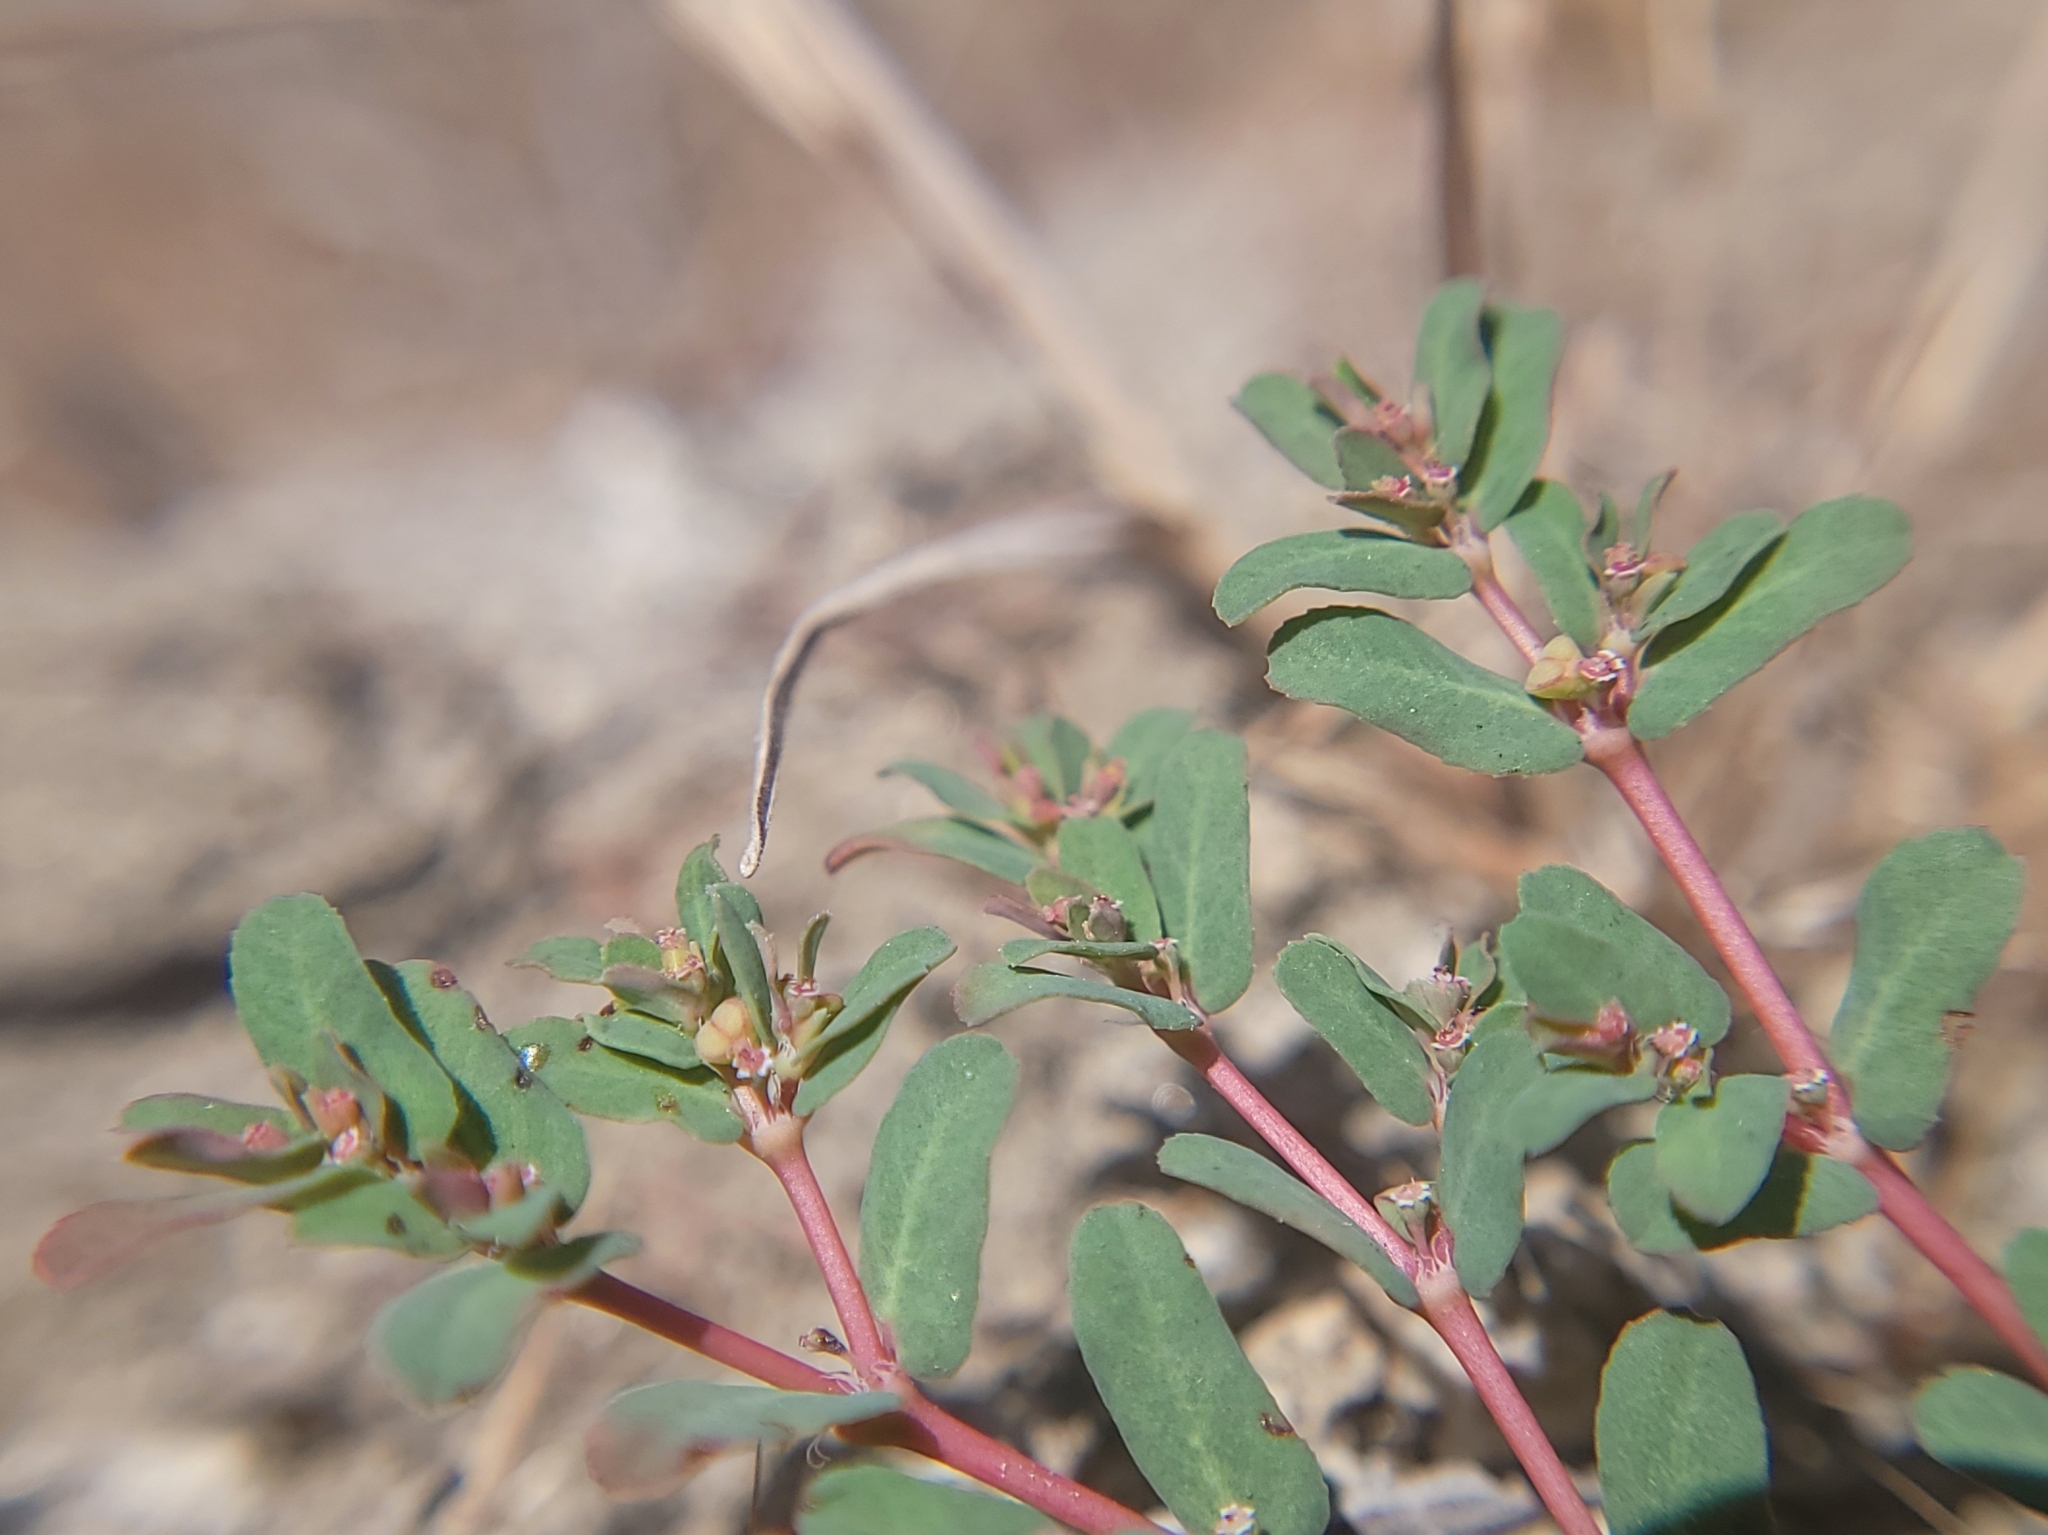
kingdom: Plantae
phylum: Tracheophyta
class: Magnoliopsida
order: Malpighiales
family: Euphorbiaceae
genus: Euphorbia
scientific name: Euphorbia glyptosperma
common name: Corrugate-seeded spurge
